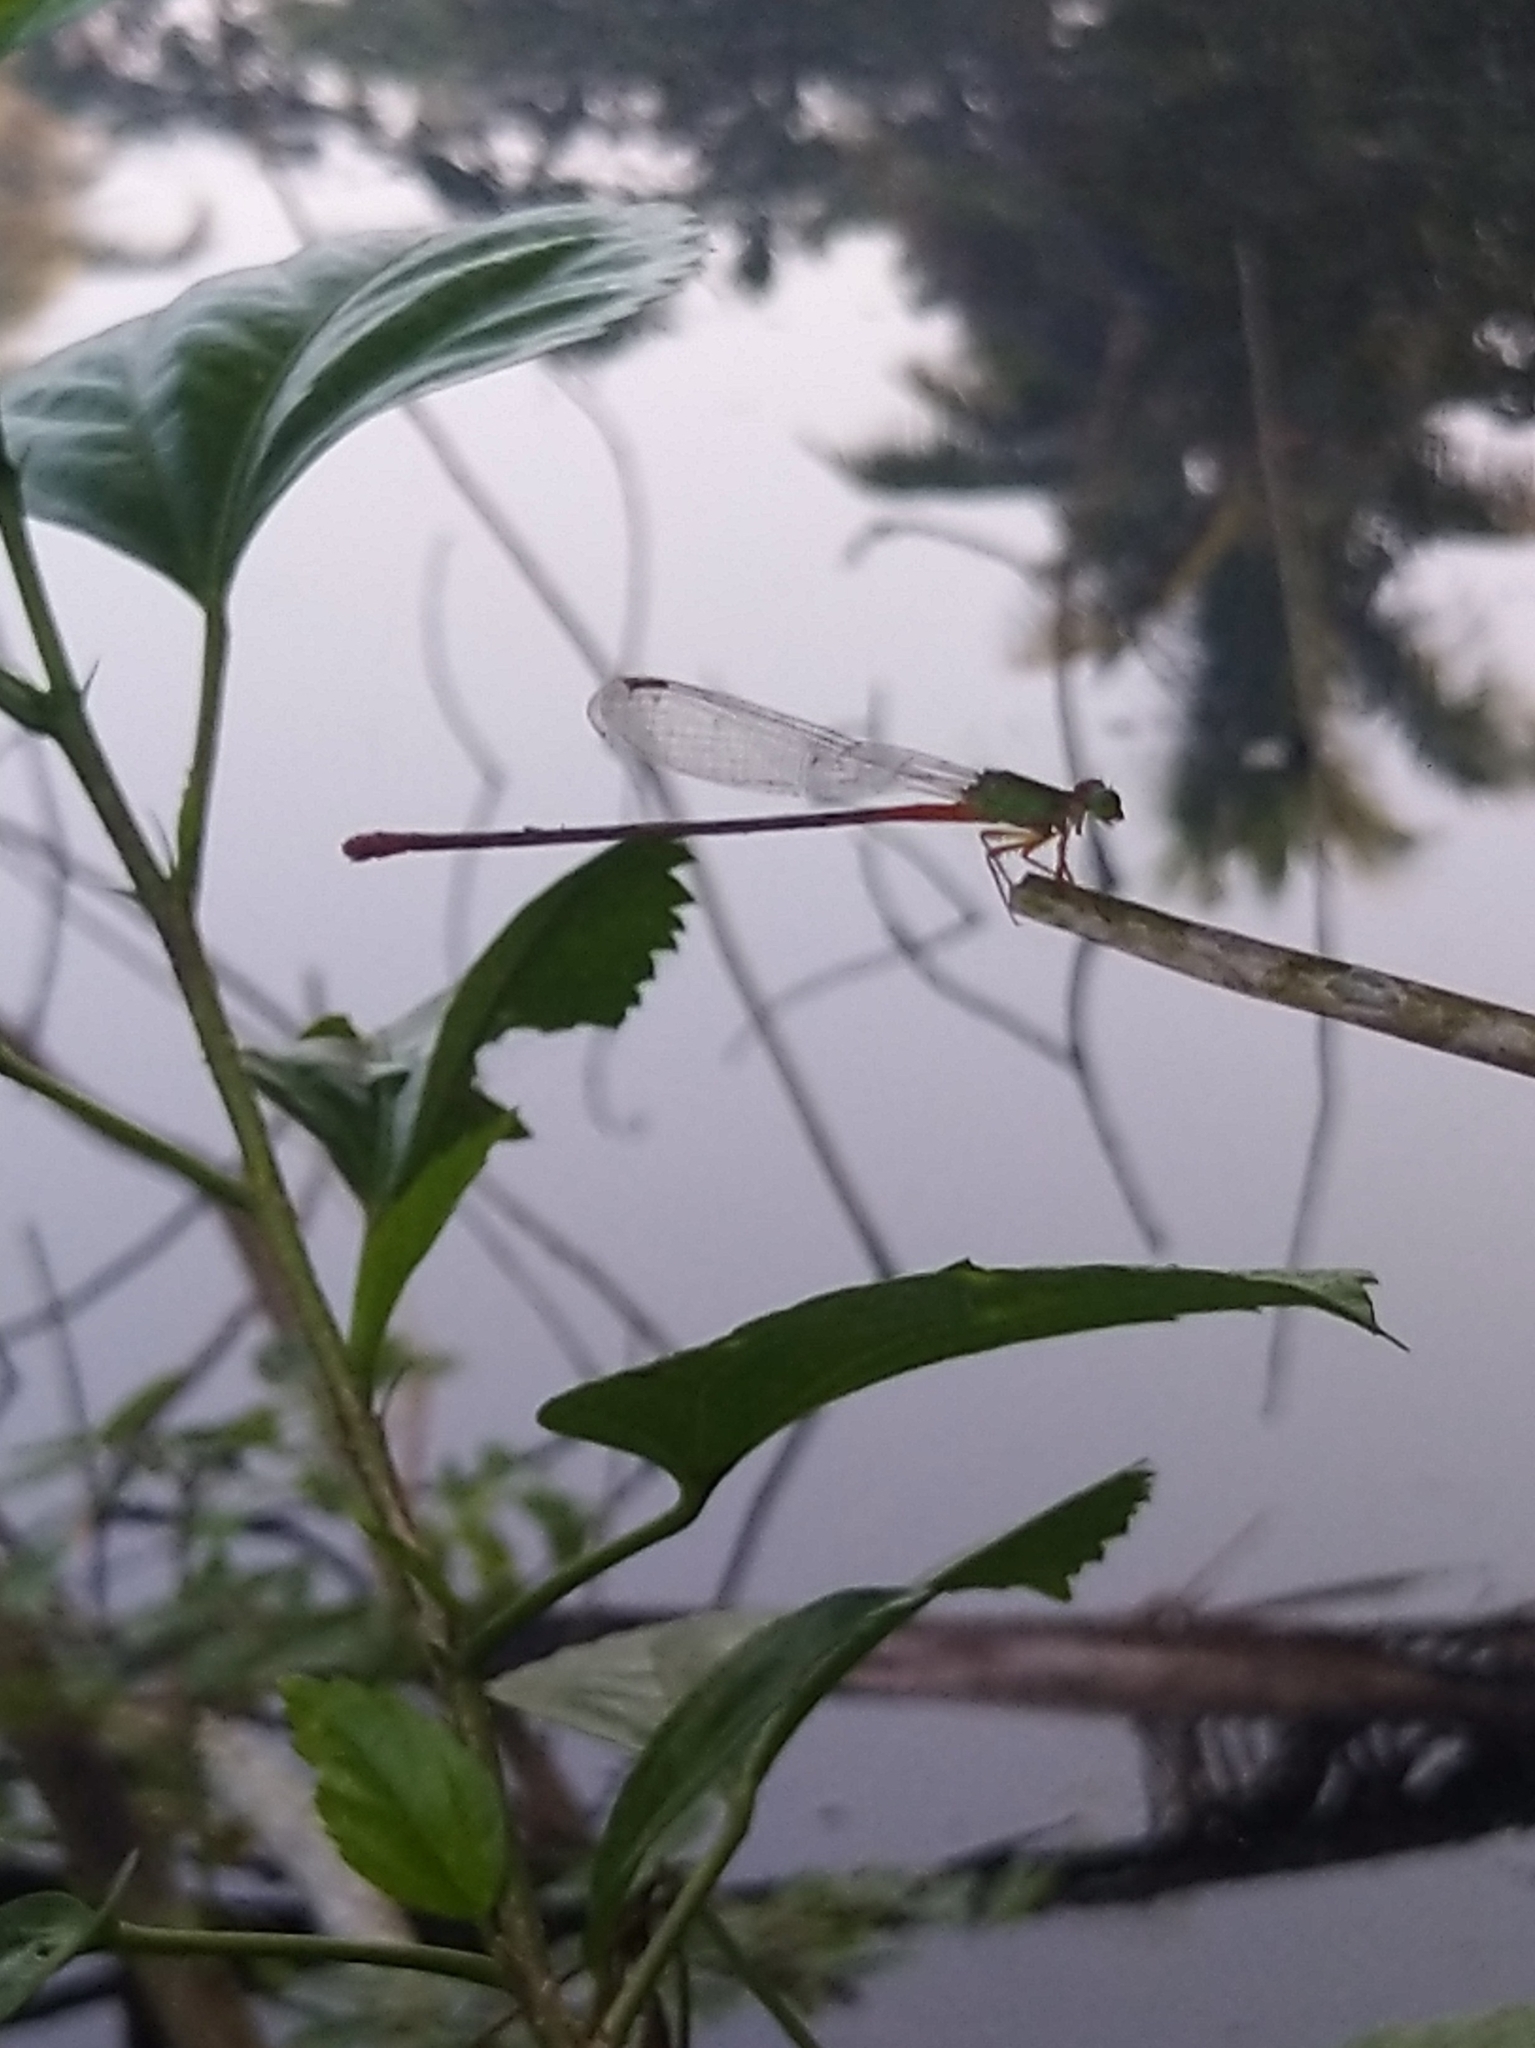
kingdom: Animalia
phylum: Arthropoda
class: Insecta
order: Odonata
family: Coenagrionidae
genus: Ceriagrion
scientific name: Ceriagrion cerinorubellum
